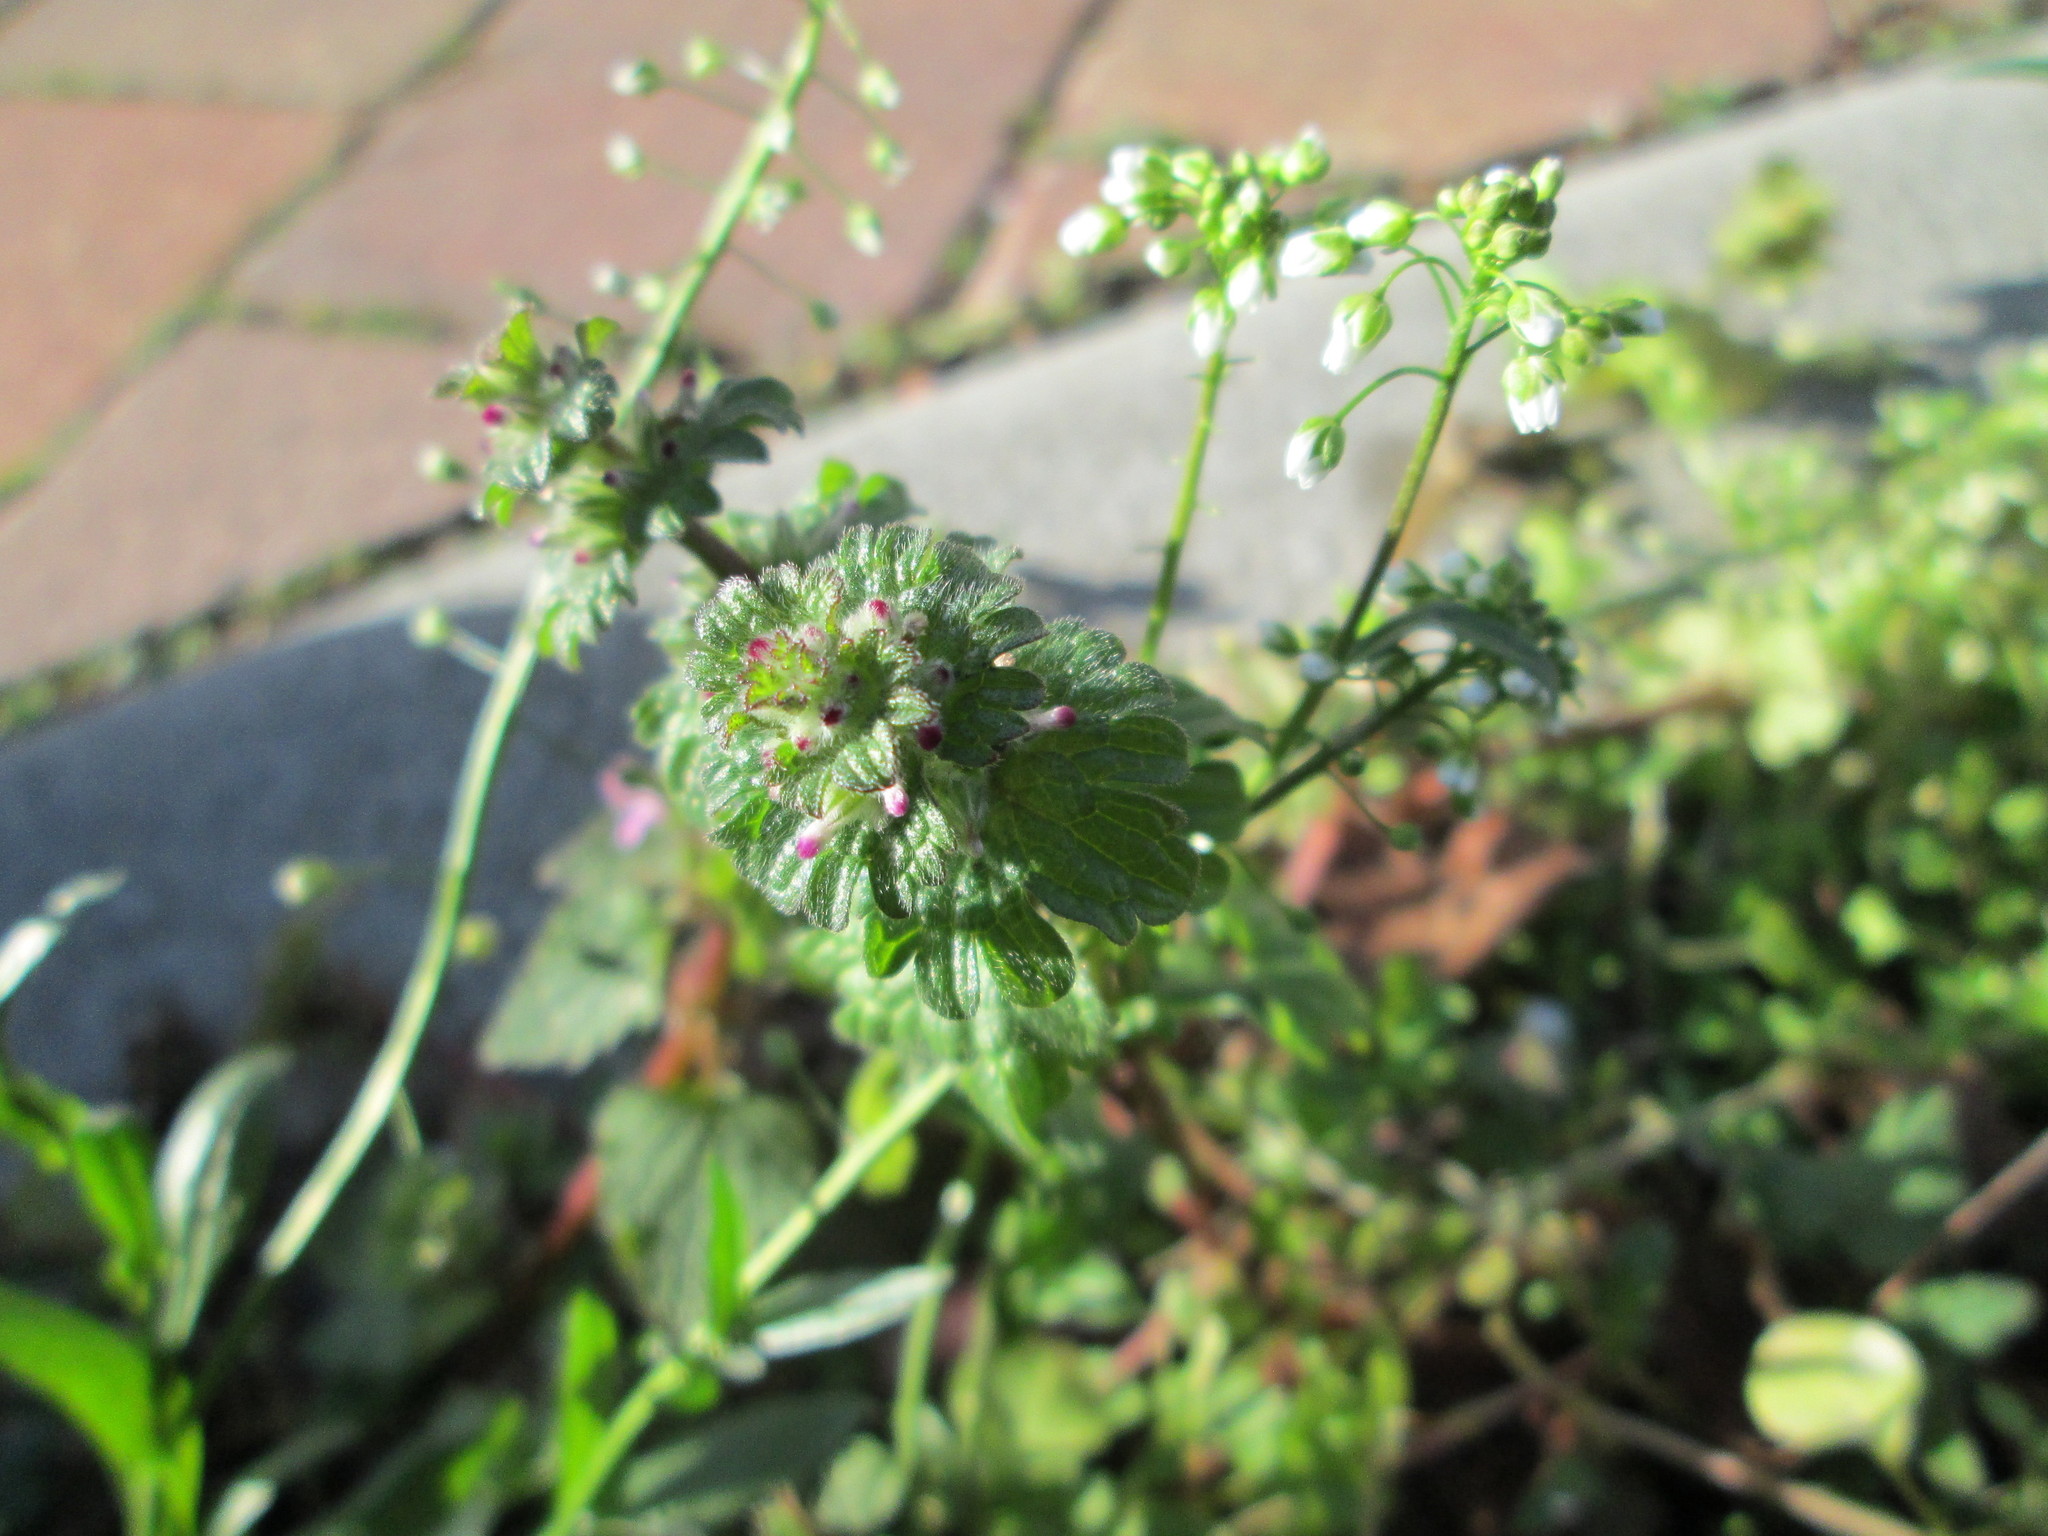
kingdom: Plantae
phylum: Tracheophyta
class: Magnoliopsida
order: Lamiales
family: Lamiaceae
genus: Lamium
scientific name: Lamium amplexicaule
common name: Henbit dead-nettle
